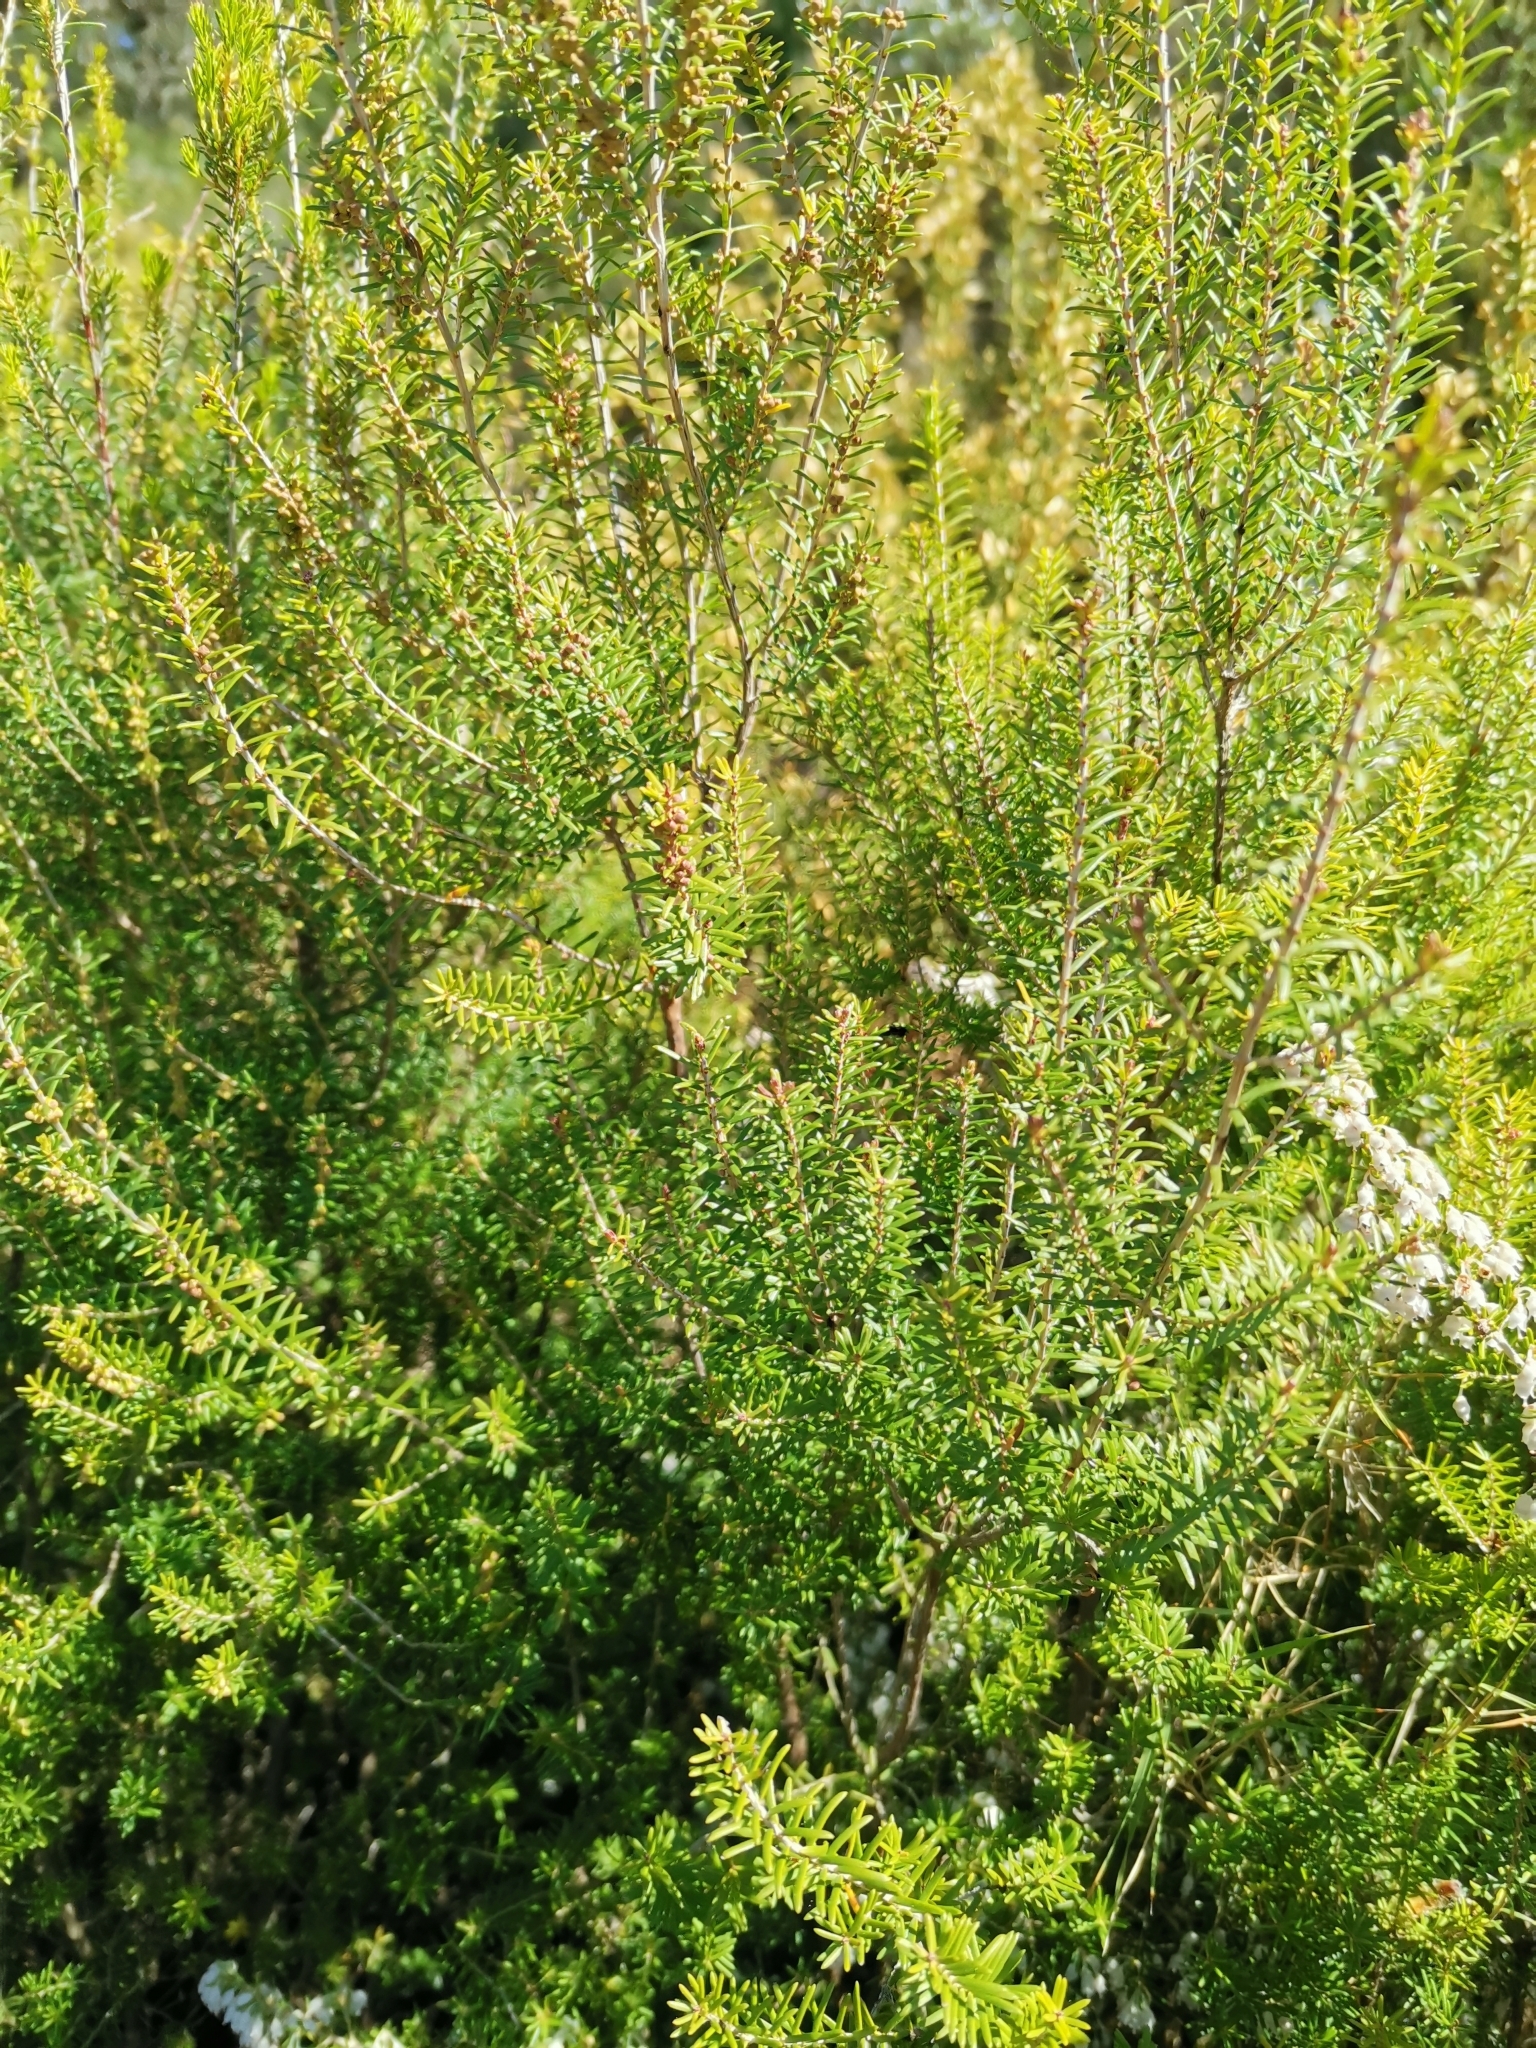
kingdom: Plantae
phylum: Tracheophyta
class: Magnoliopsida
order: Ericales
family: Ericaceae
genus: Erica
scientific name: Erica arborea
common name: Tree heath
